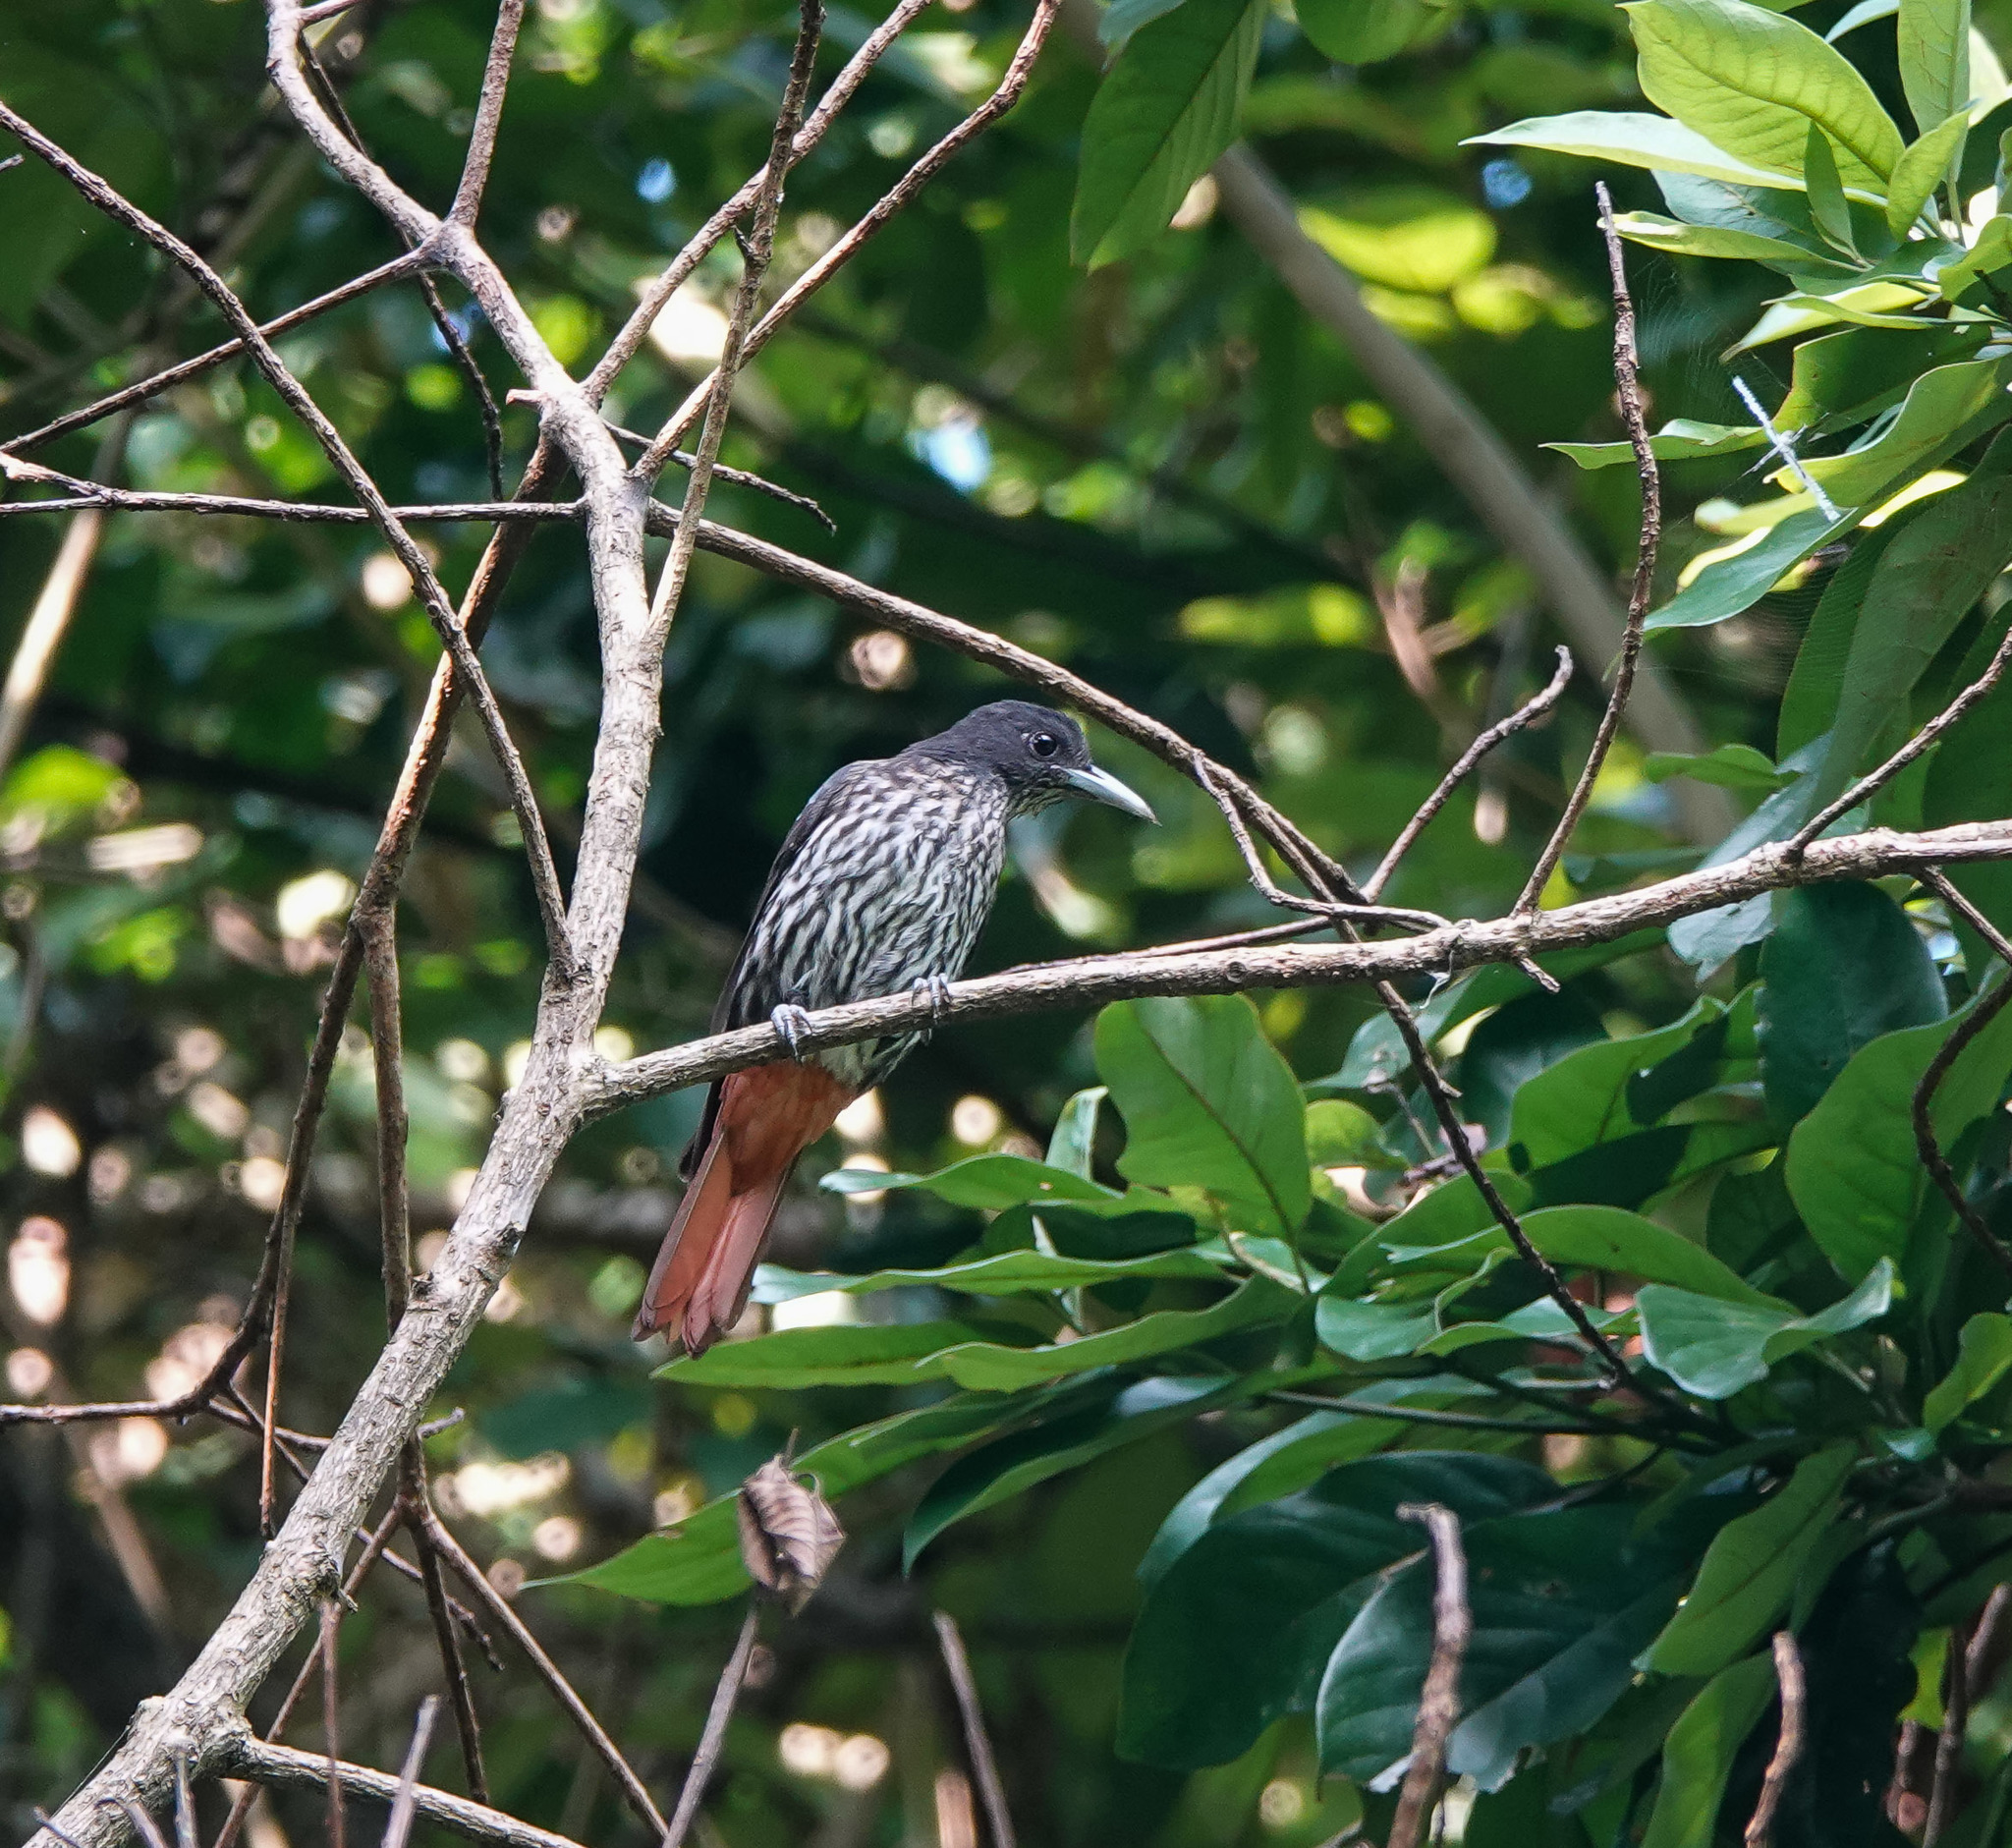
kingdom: Animalia
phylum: Chordata
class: Aves
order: Passeriformes
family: Oriolidae
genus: Oriolus
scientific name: Oriolus traillii
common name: Maroon oriole
